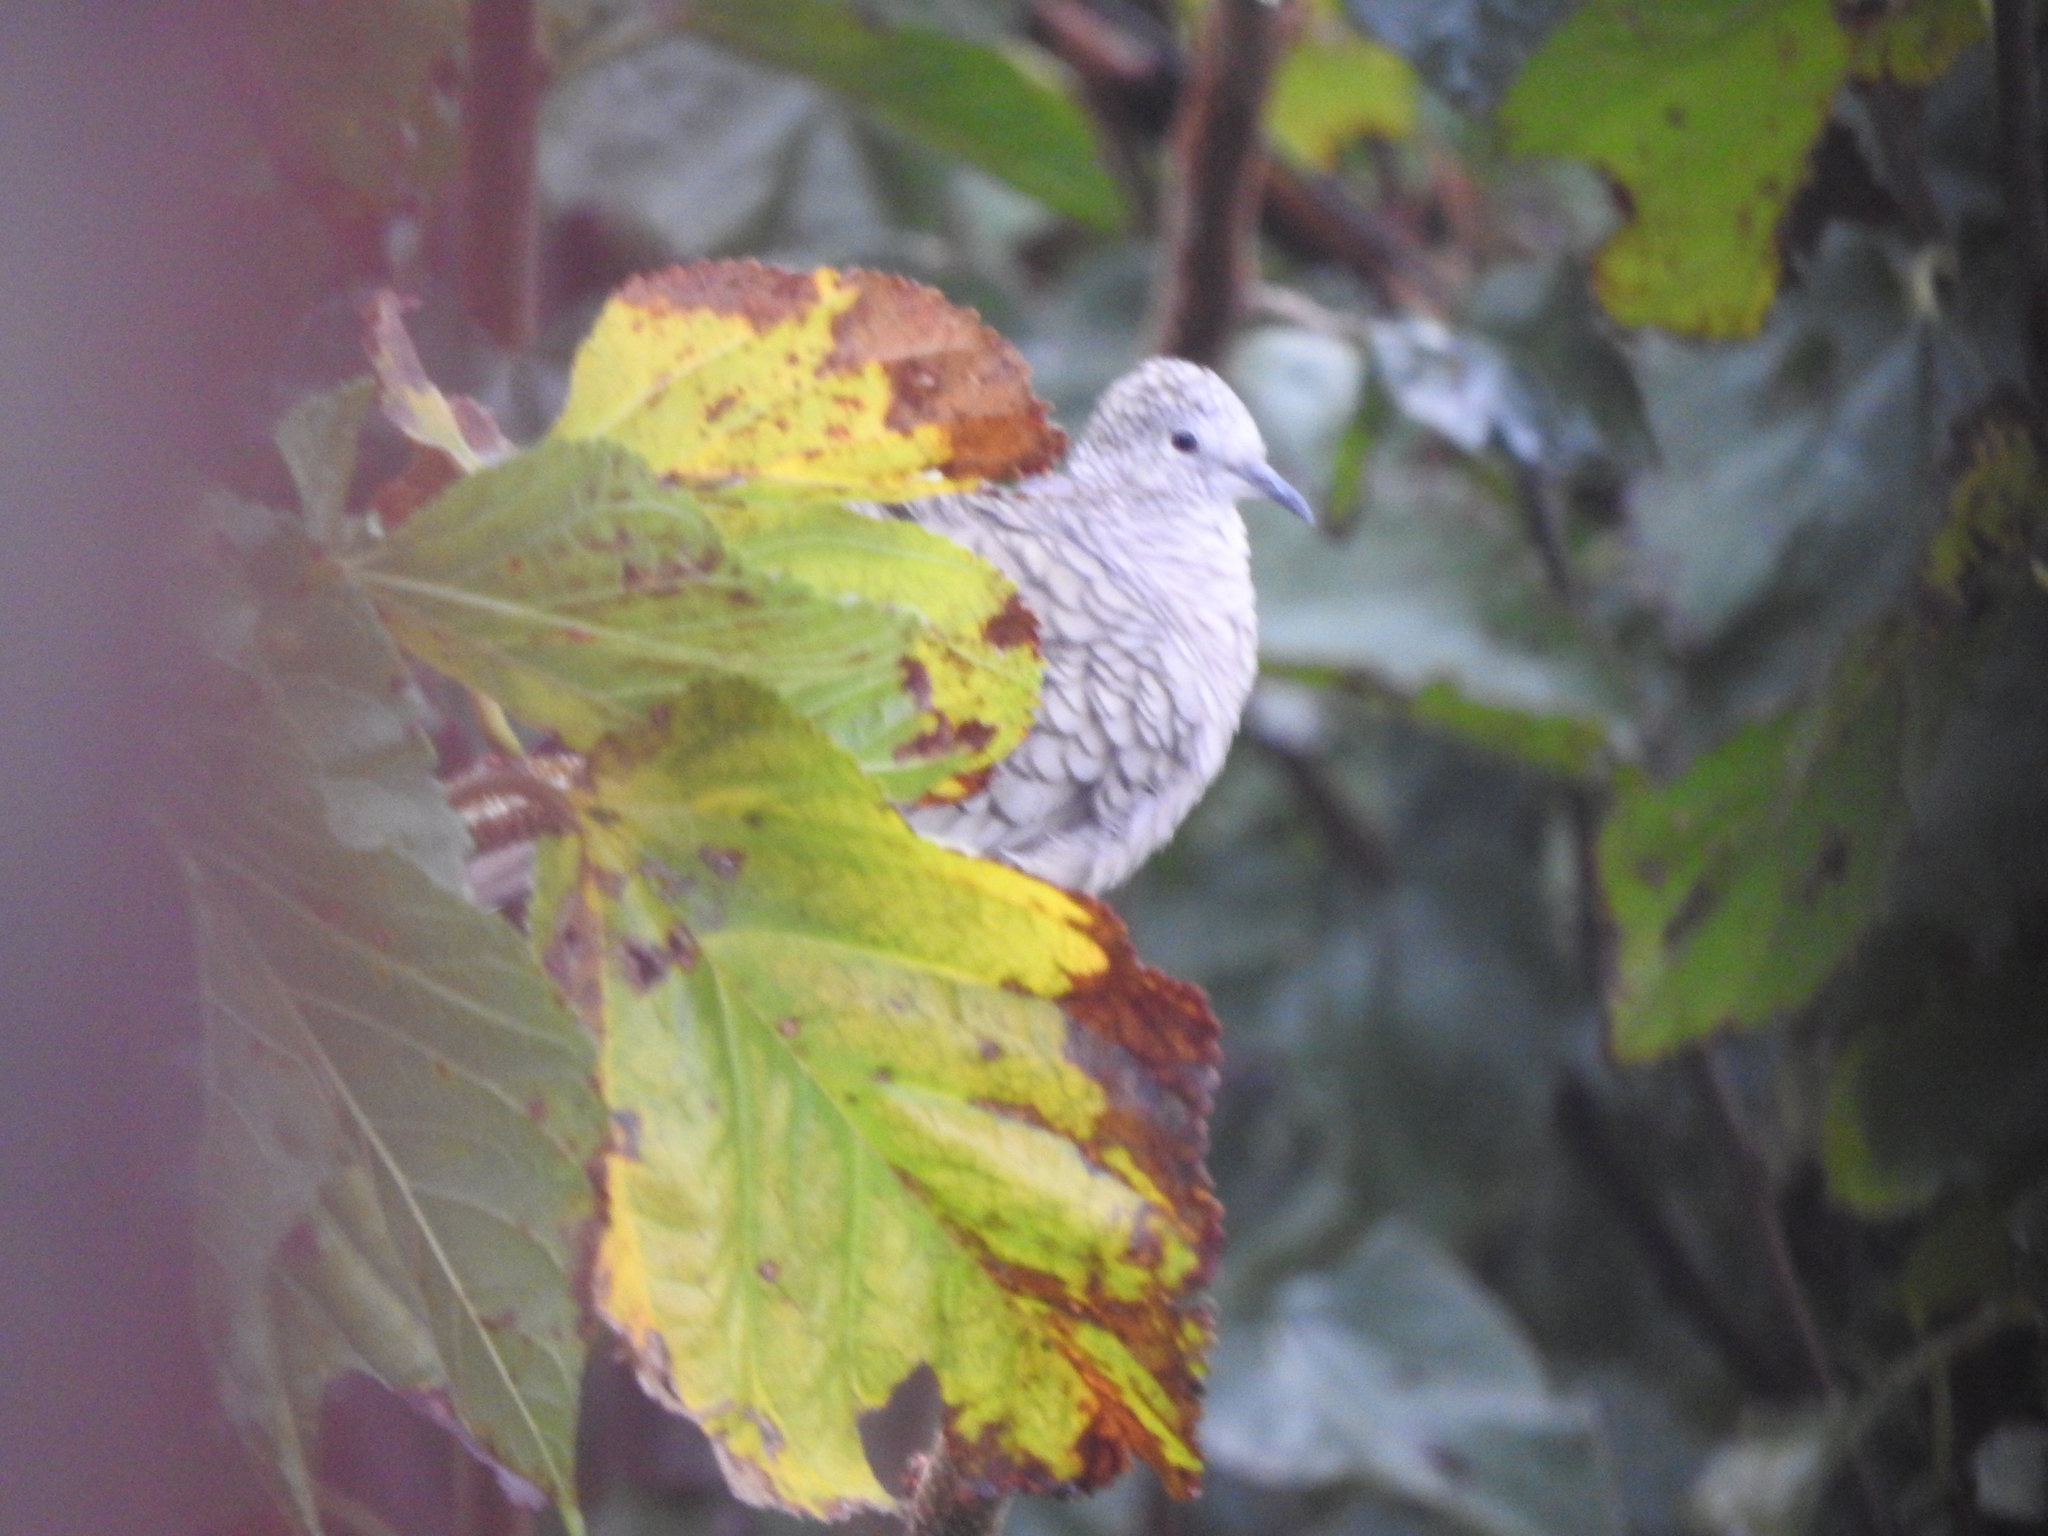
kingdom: Animalia
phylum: Chordata
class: Aves
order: Columbiformes
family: Columbidae
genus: Columbina
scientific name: Columbina inca
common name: Inca dove
